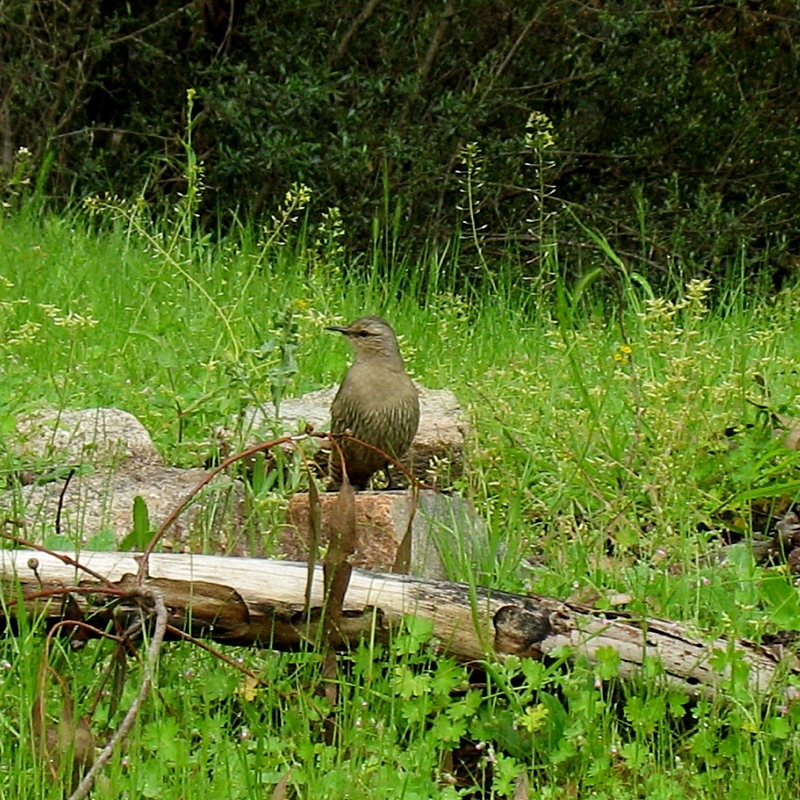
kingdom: Animalia
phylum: Chordata
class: Aves
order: Passeriformes
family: Climacteridae
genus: Climacteris
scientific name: Climacteris picumnus
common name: Brown treecreeper
